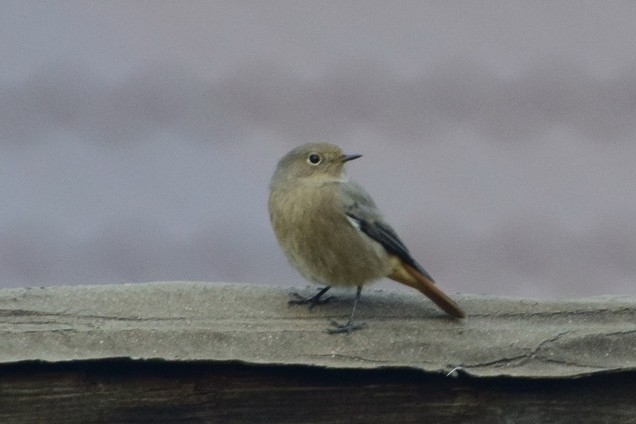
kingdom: Animalia
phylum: Chordata
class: Aves
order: Passeriformes
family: Muscicapidae
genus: Phoenicurus
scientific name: Phoenicurus ochruros
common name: Black redstart
